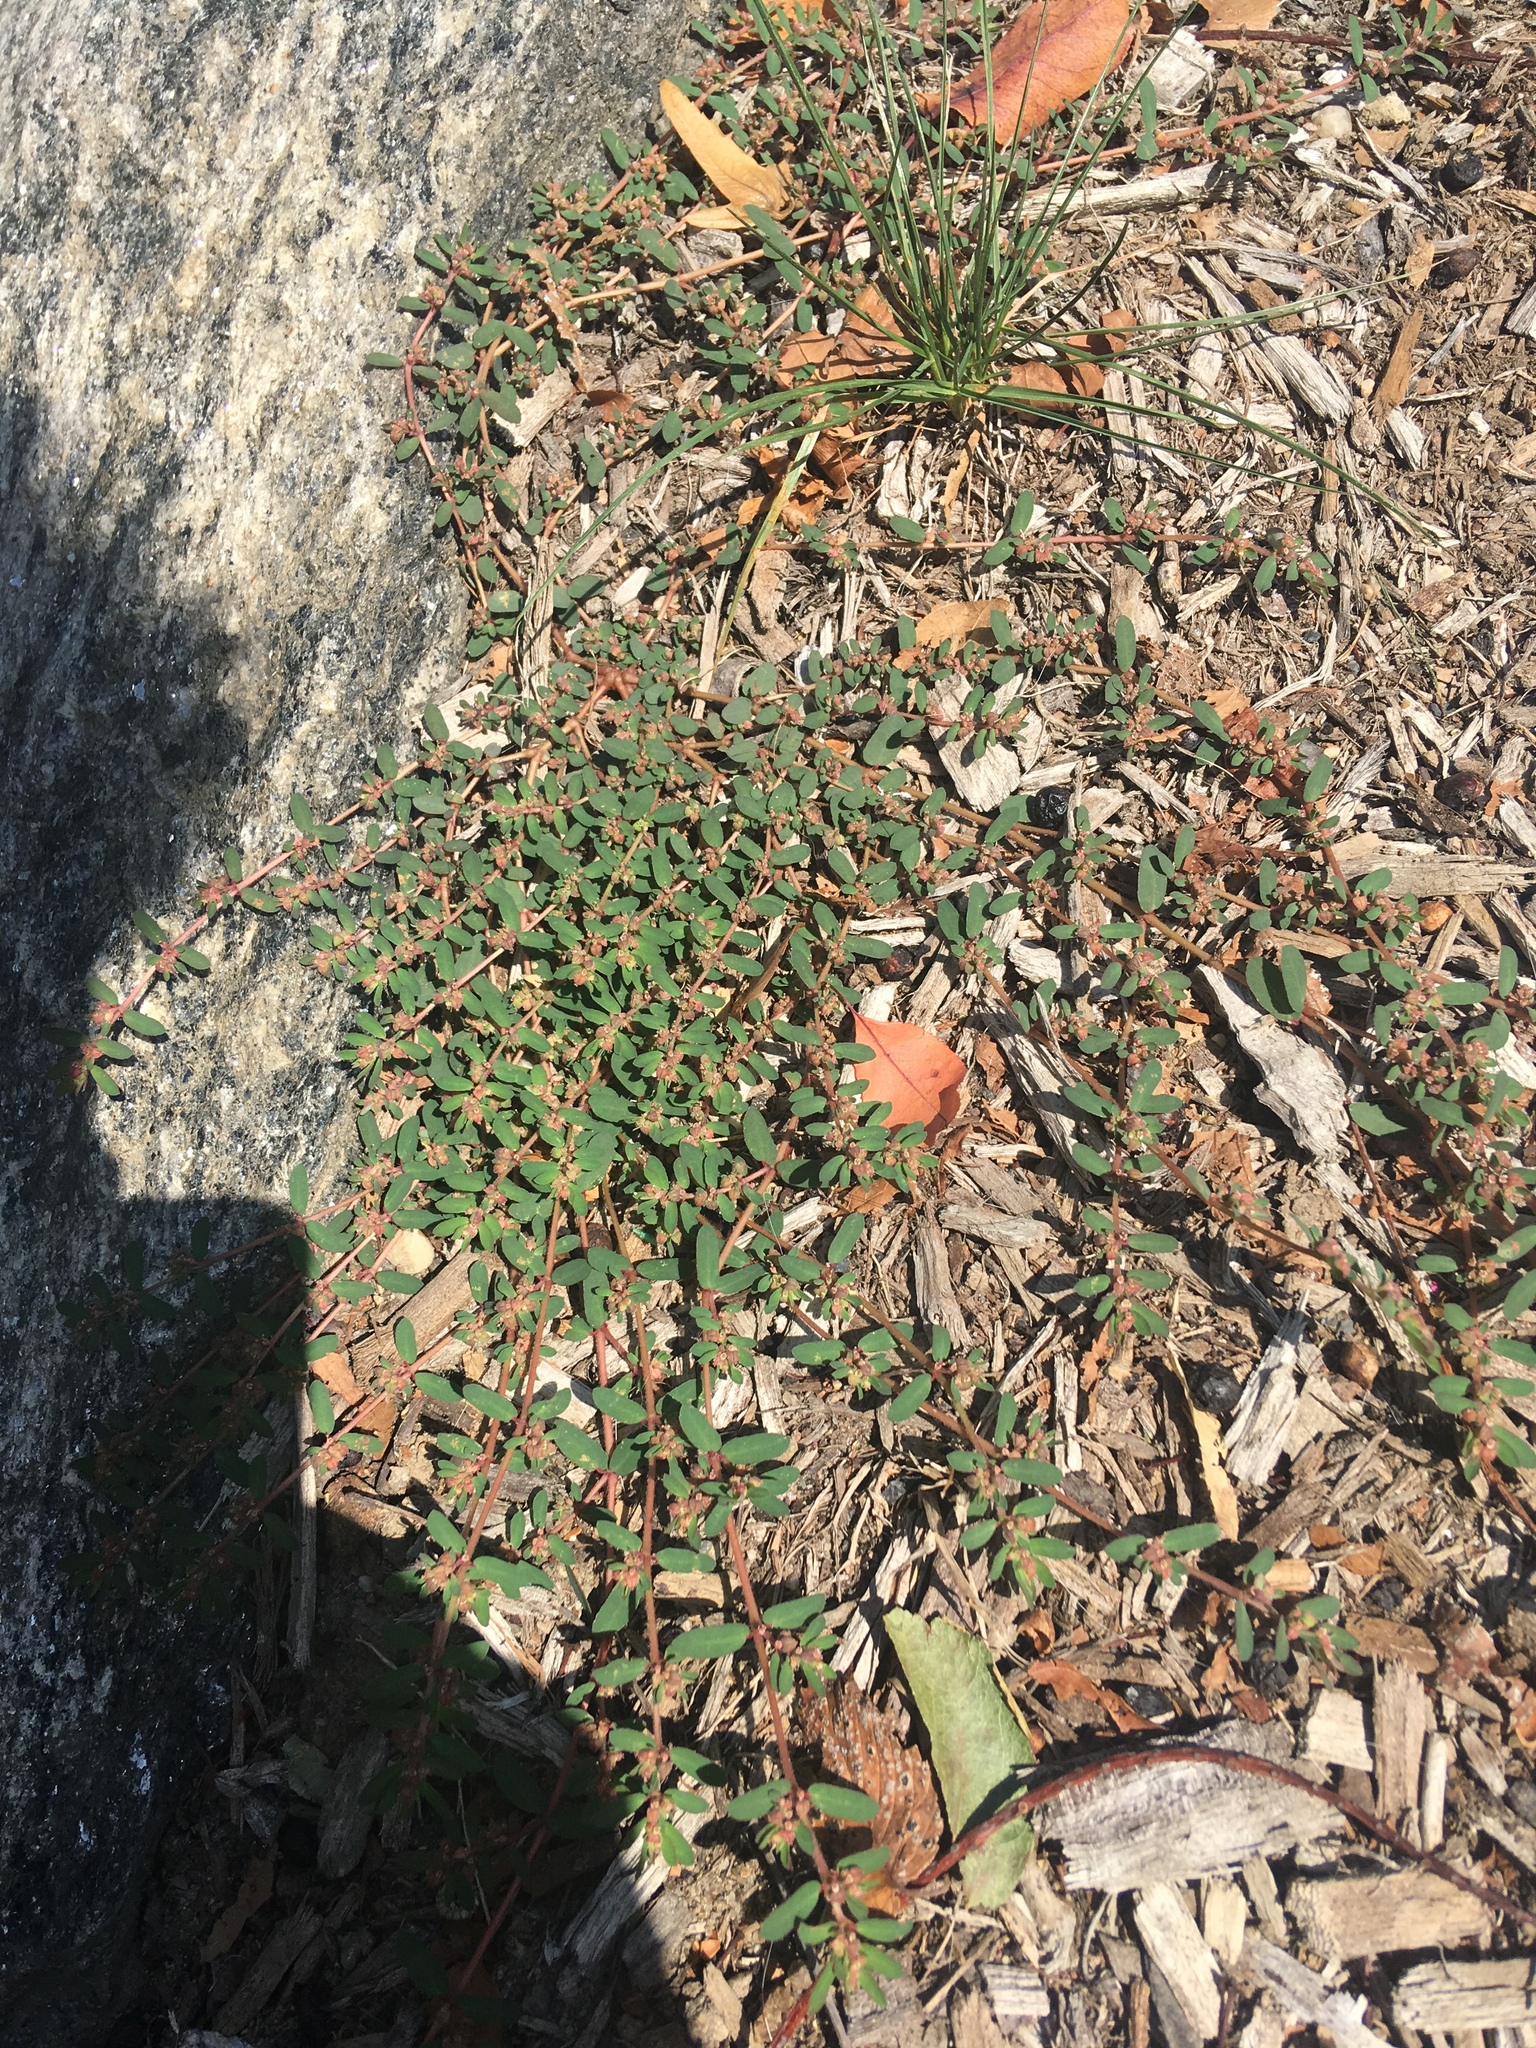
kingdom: Plantae
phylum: Tracheophyta
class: Magnoliopsida
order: Malpighiales
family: Euphorbiaceae
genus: Euphorbia
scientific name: Euphorbia maculata
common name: Spotted spurge
